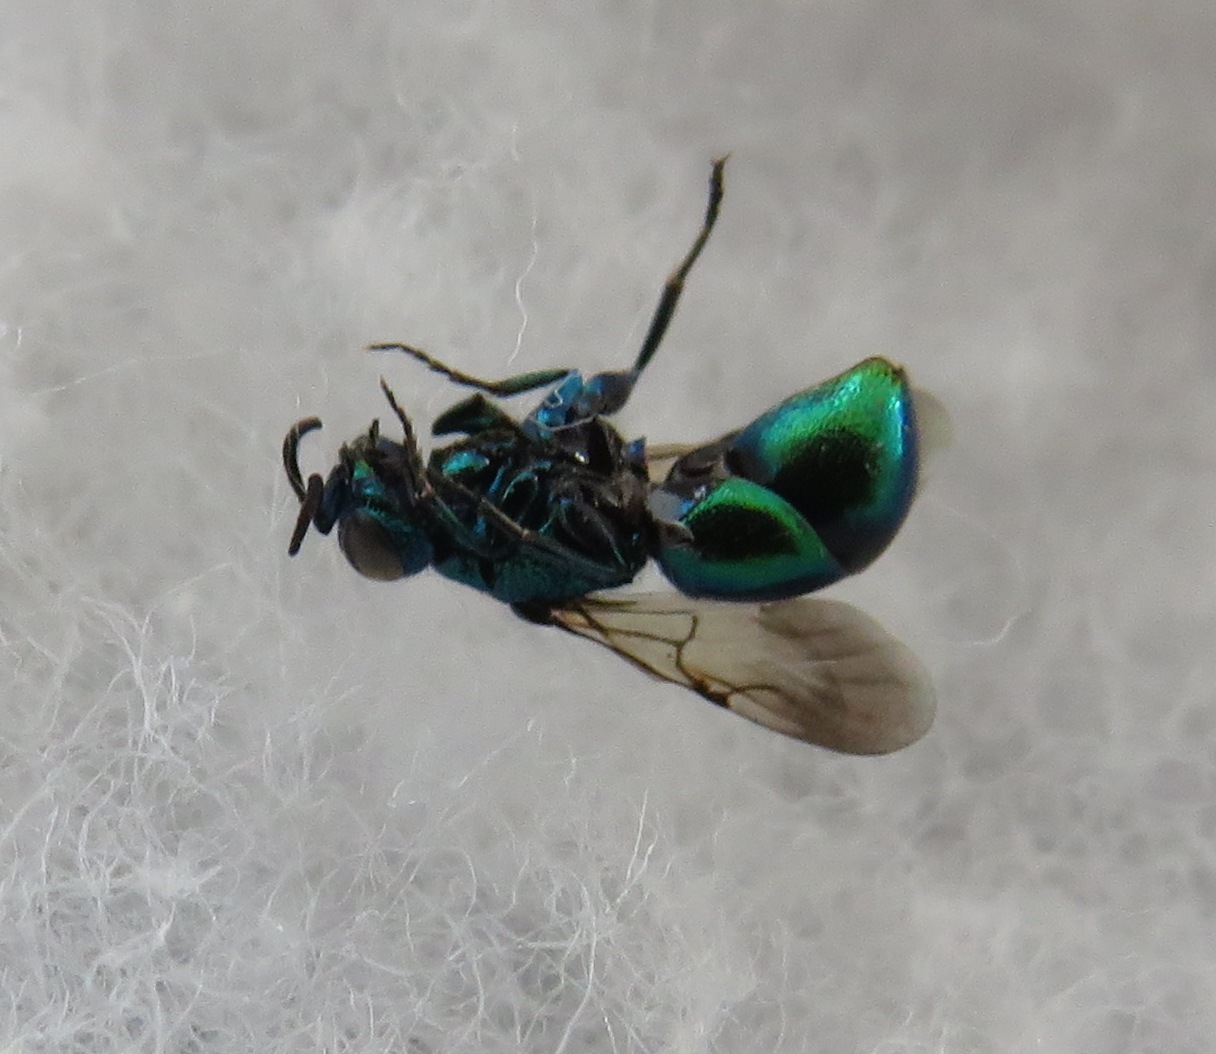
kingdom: Animalia
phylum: Arthropoda
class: Insecta
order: Hymenoptera
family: Chrysididae
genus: Pseudomalus
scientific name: Pseudomalus pusillus
